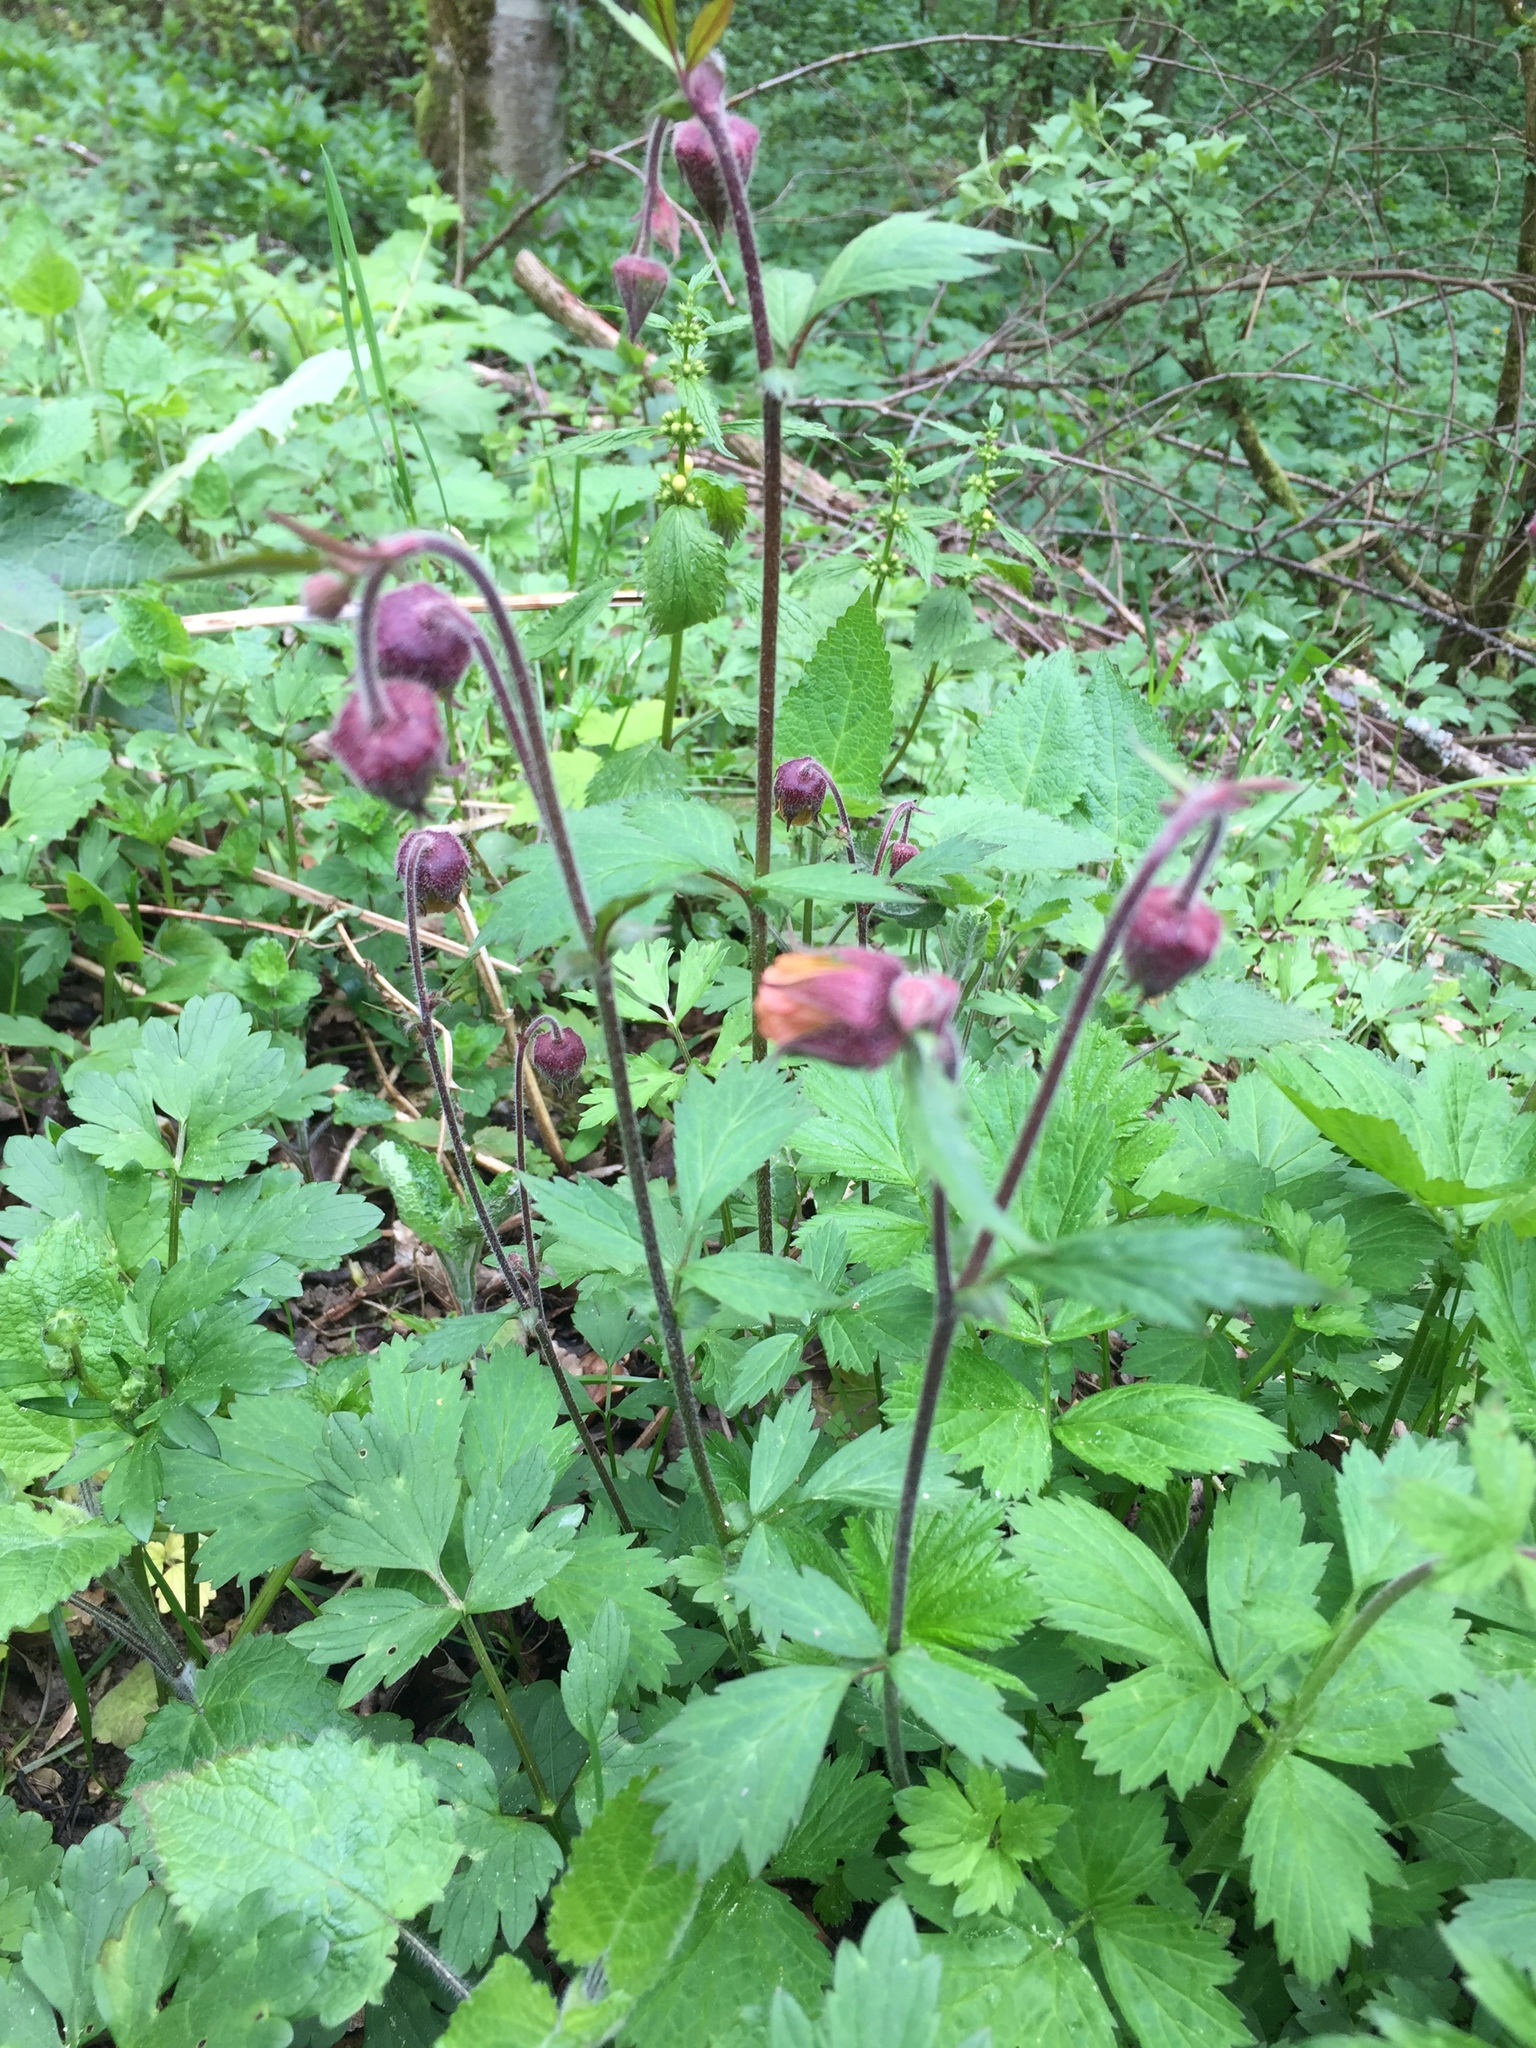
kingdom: Plantae
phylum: Tracheophyta
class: Magnoliopsida
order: Rosales
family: Rosaceae
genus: Geum
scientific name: Geum rivale
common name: Water avens
